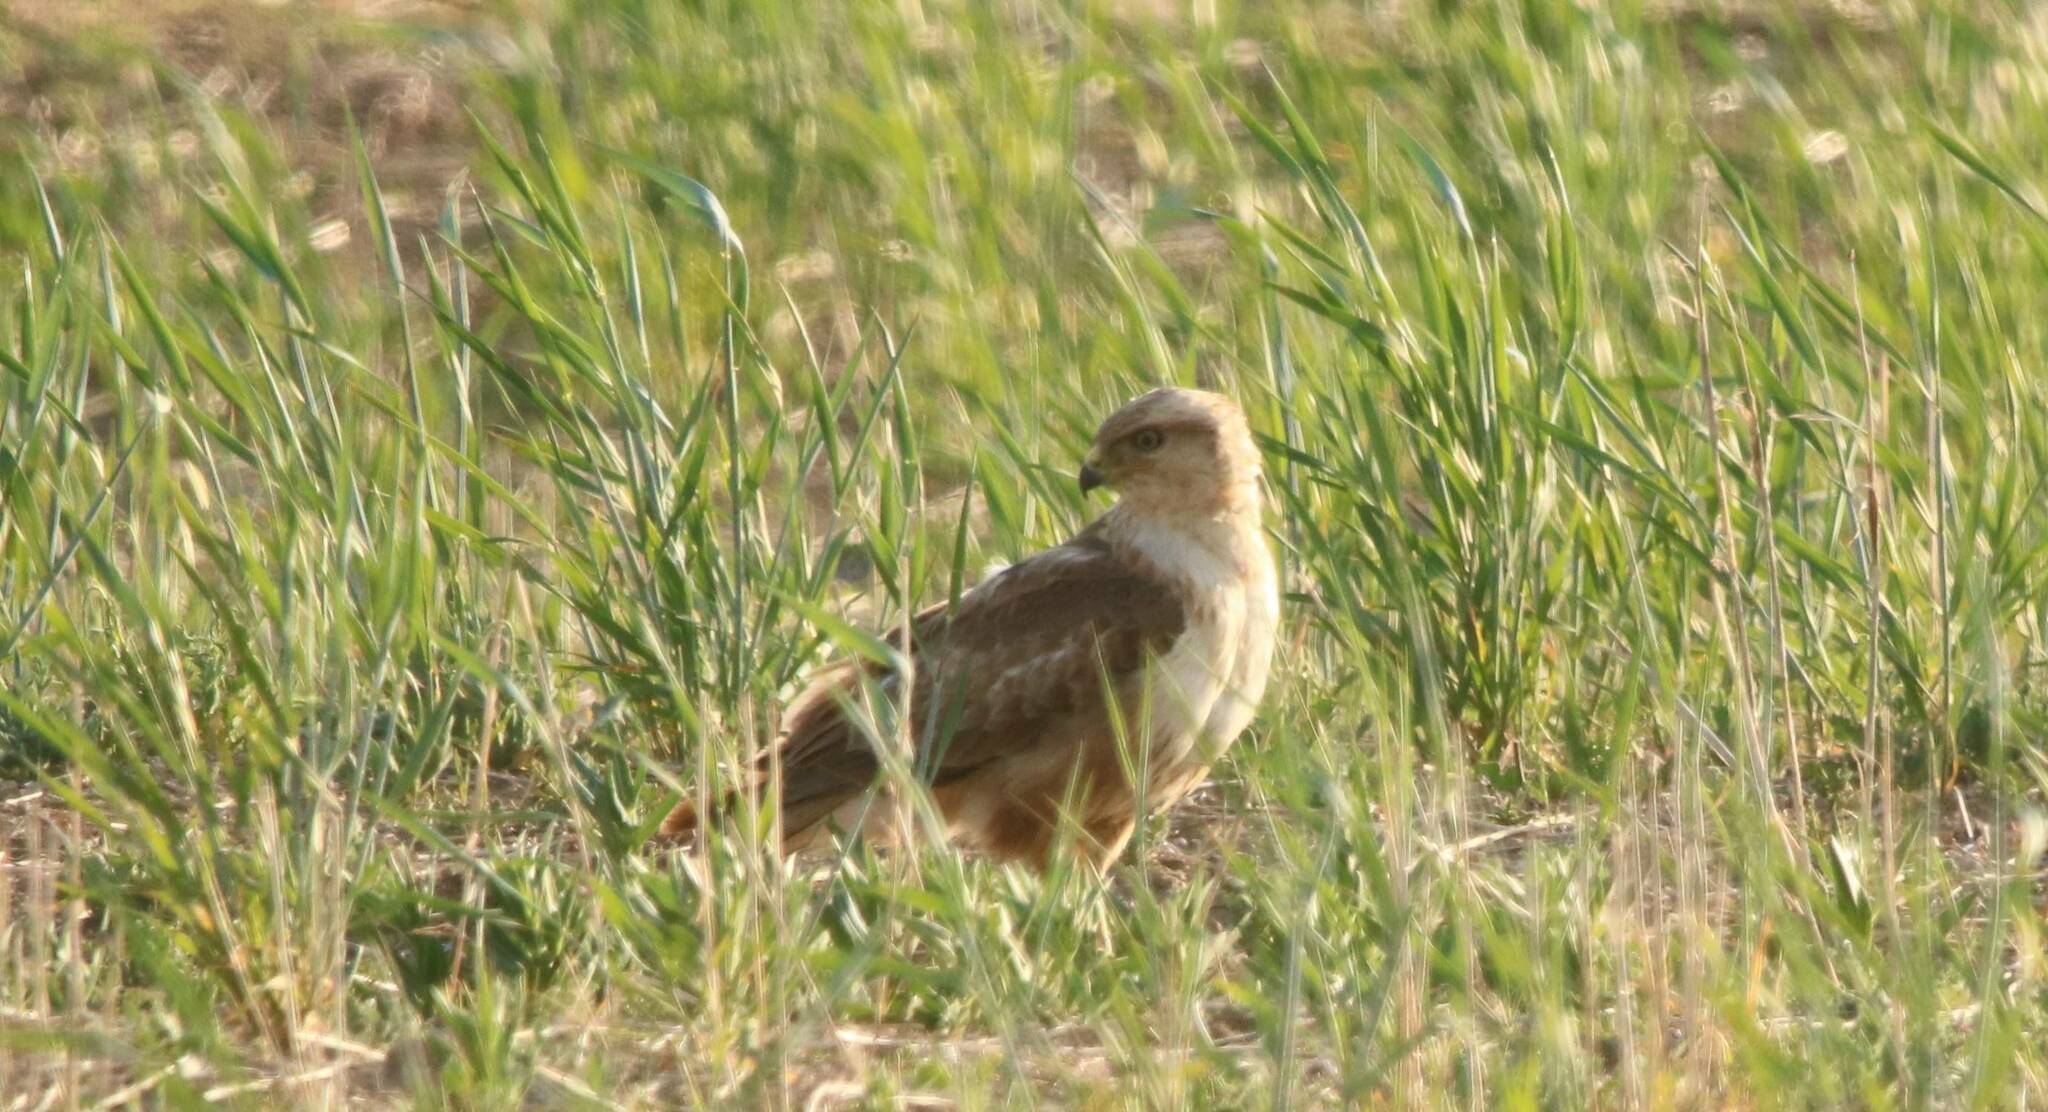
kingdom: Animalia
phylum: Chordata
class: Aves
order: Accipitriformes
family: Accipitridae
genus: Buteo
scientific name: Buteo rufinus
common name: Long-legged buzzard
